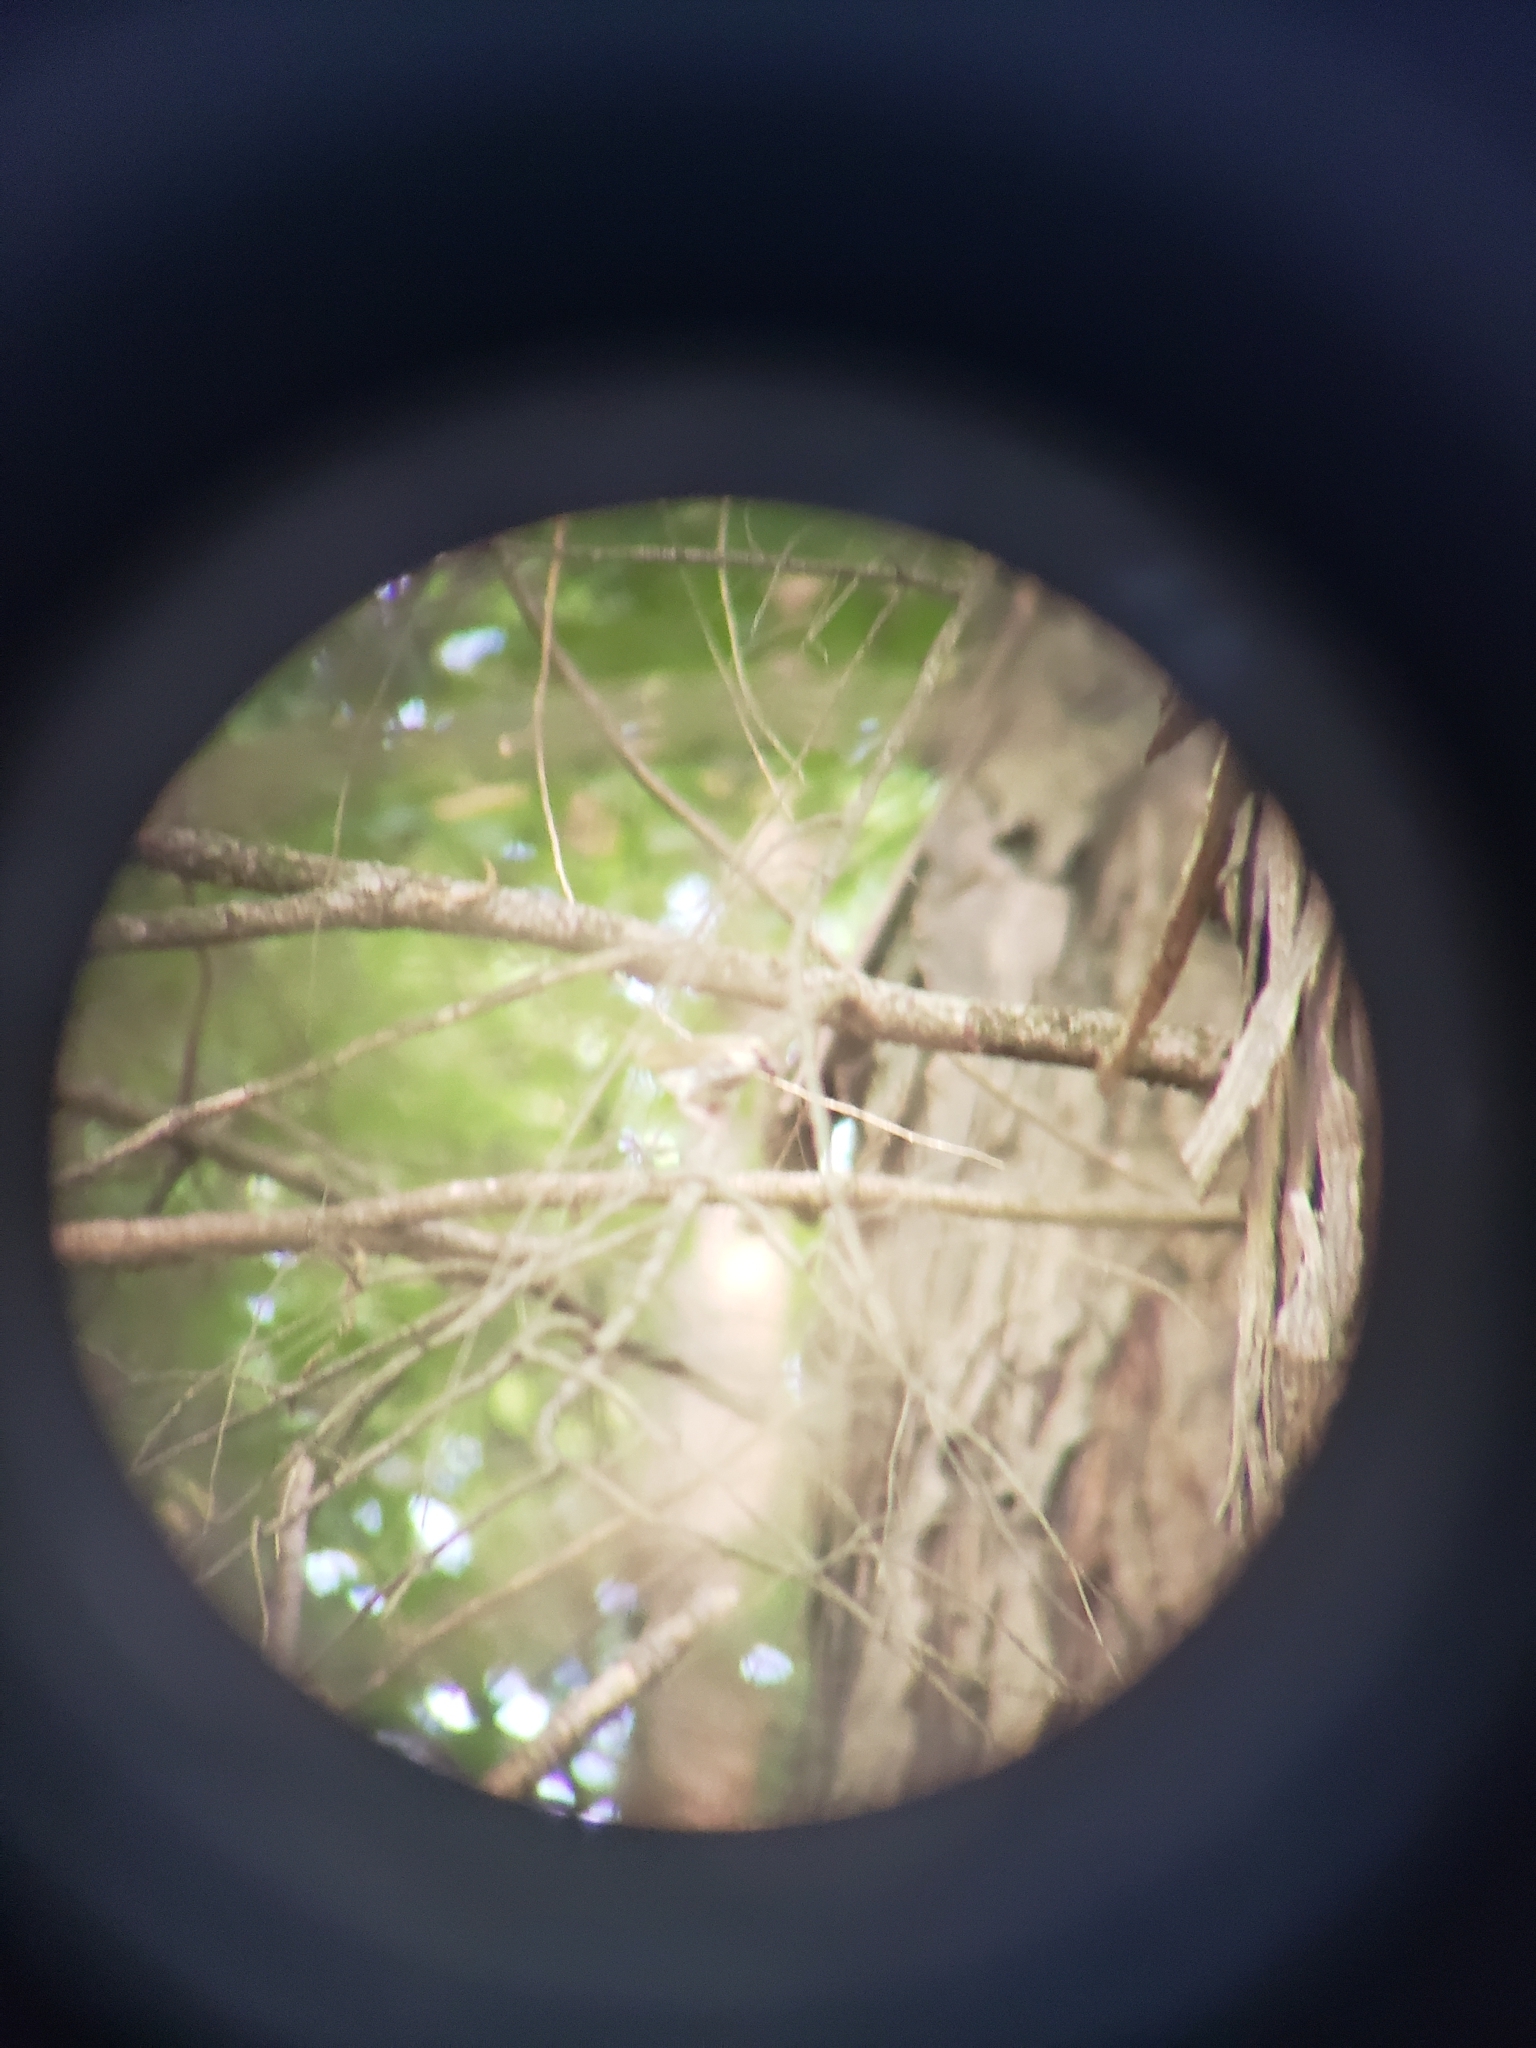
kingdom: Animalia
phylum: Chordata
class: Aves
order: Passeriformes
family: Parulidae
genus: Seiurus
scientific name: Seiurus aurocapilla
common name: Ovenbird
